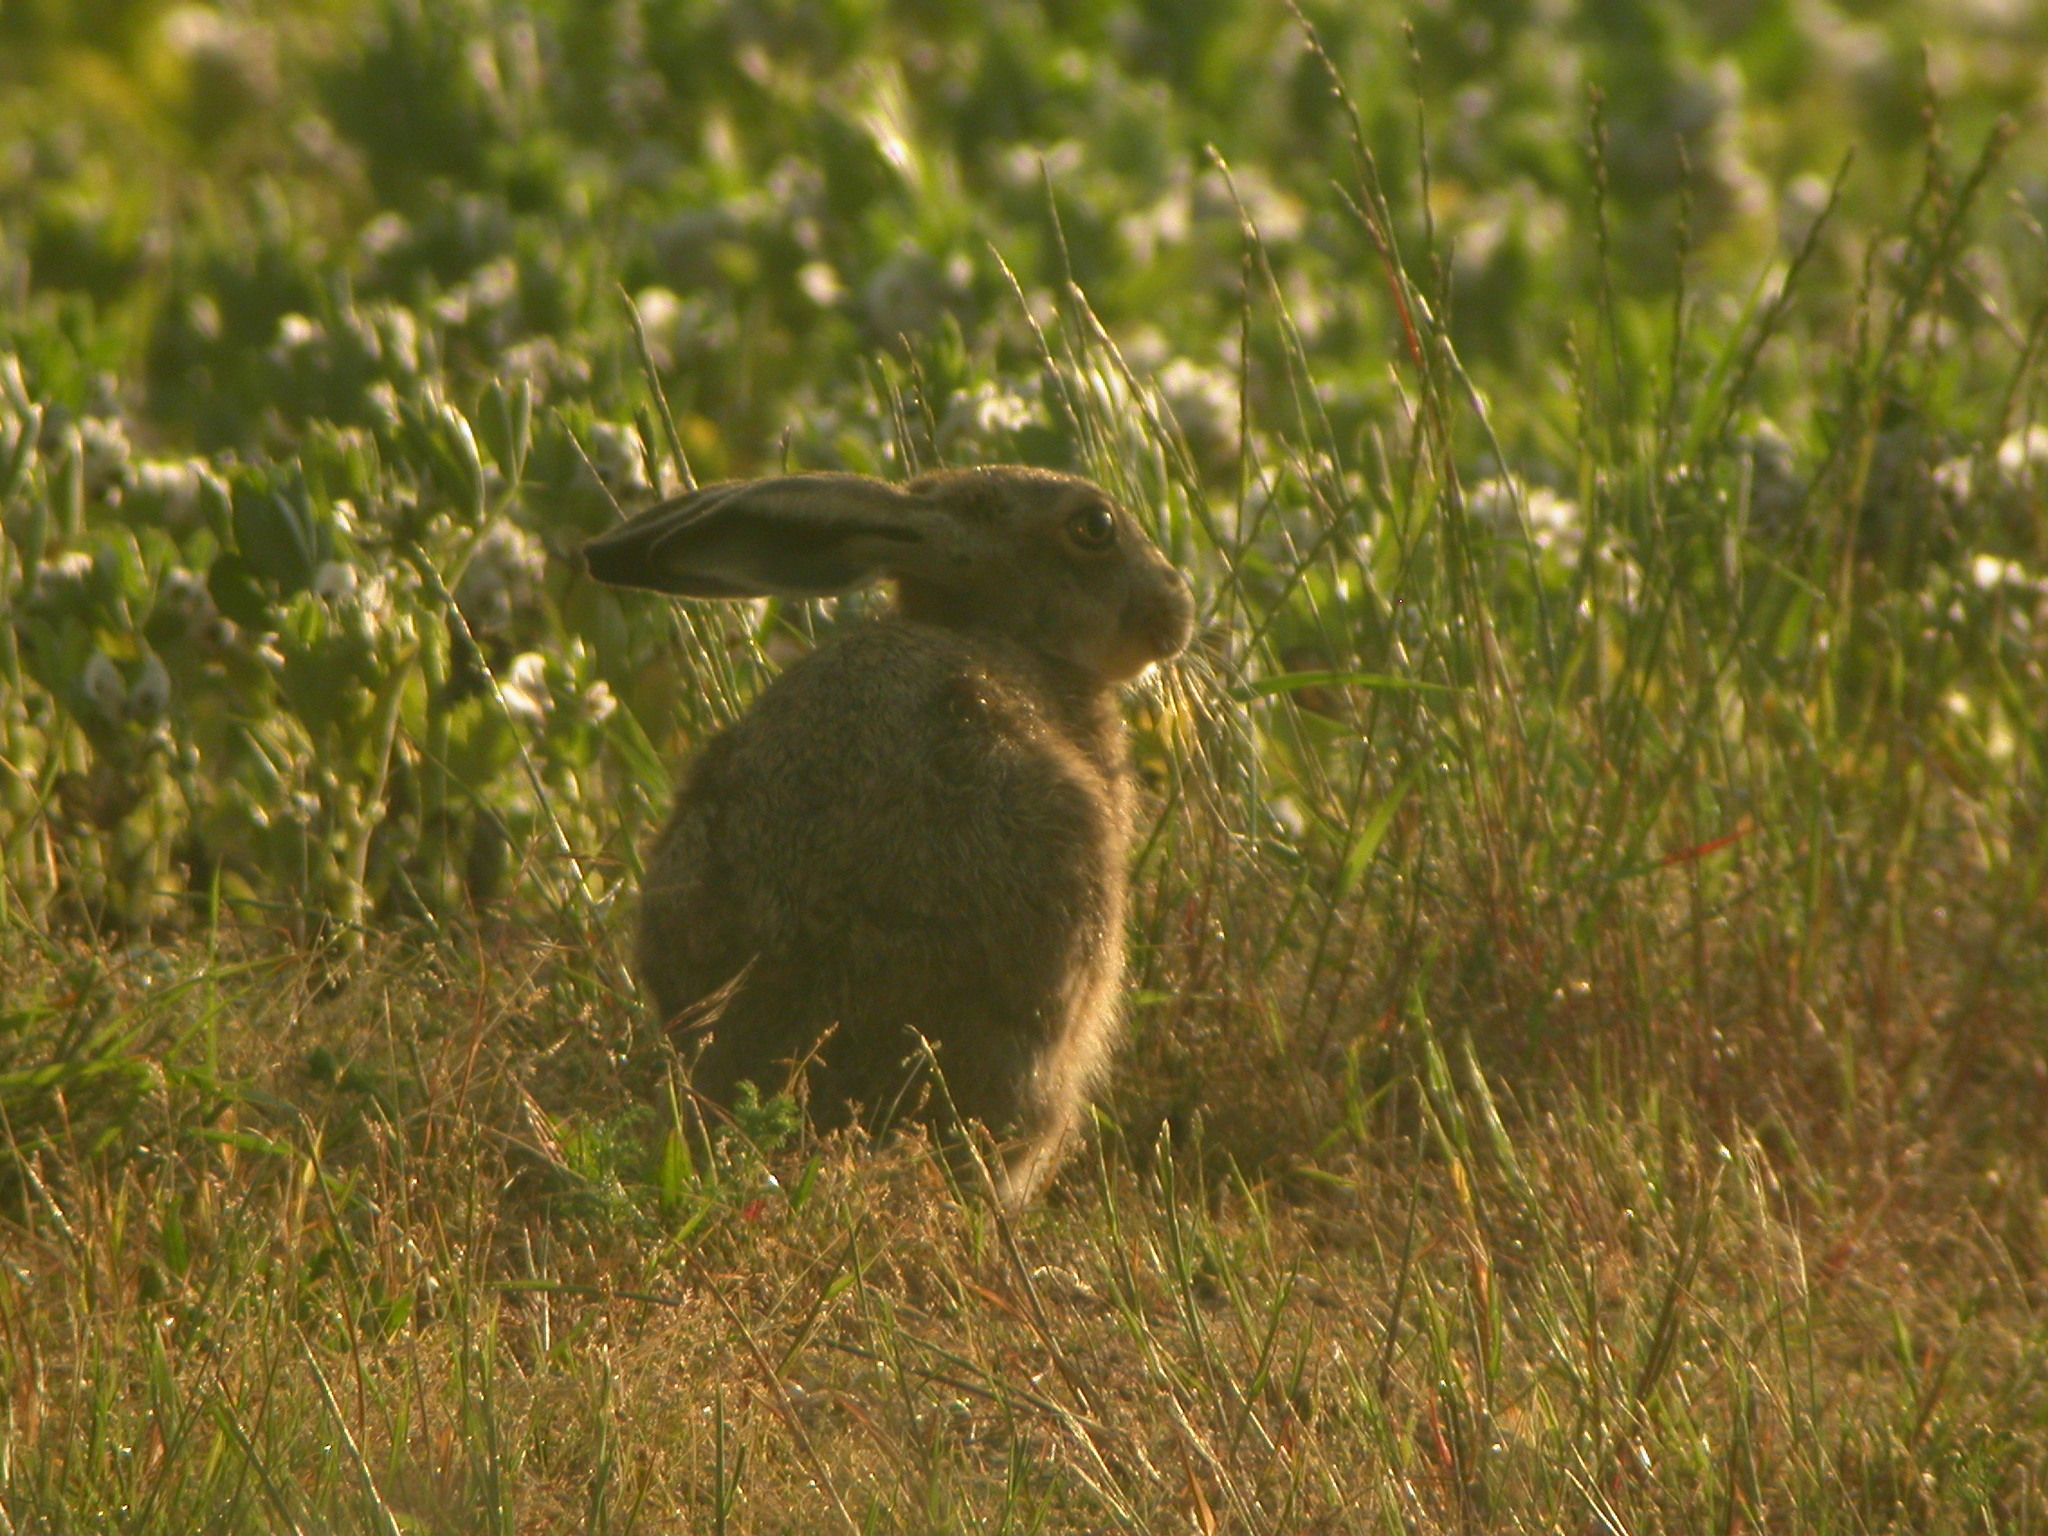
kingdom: Animalia
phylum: Chordata
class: Mammalia
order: Lagomorpha
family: Leporidae
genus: Lepus
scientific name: Lepus europaeus
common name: European hare
